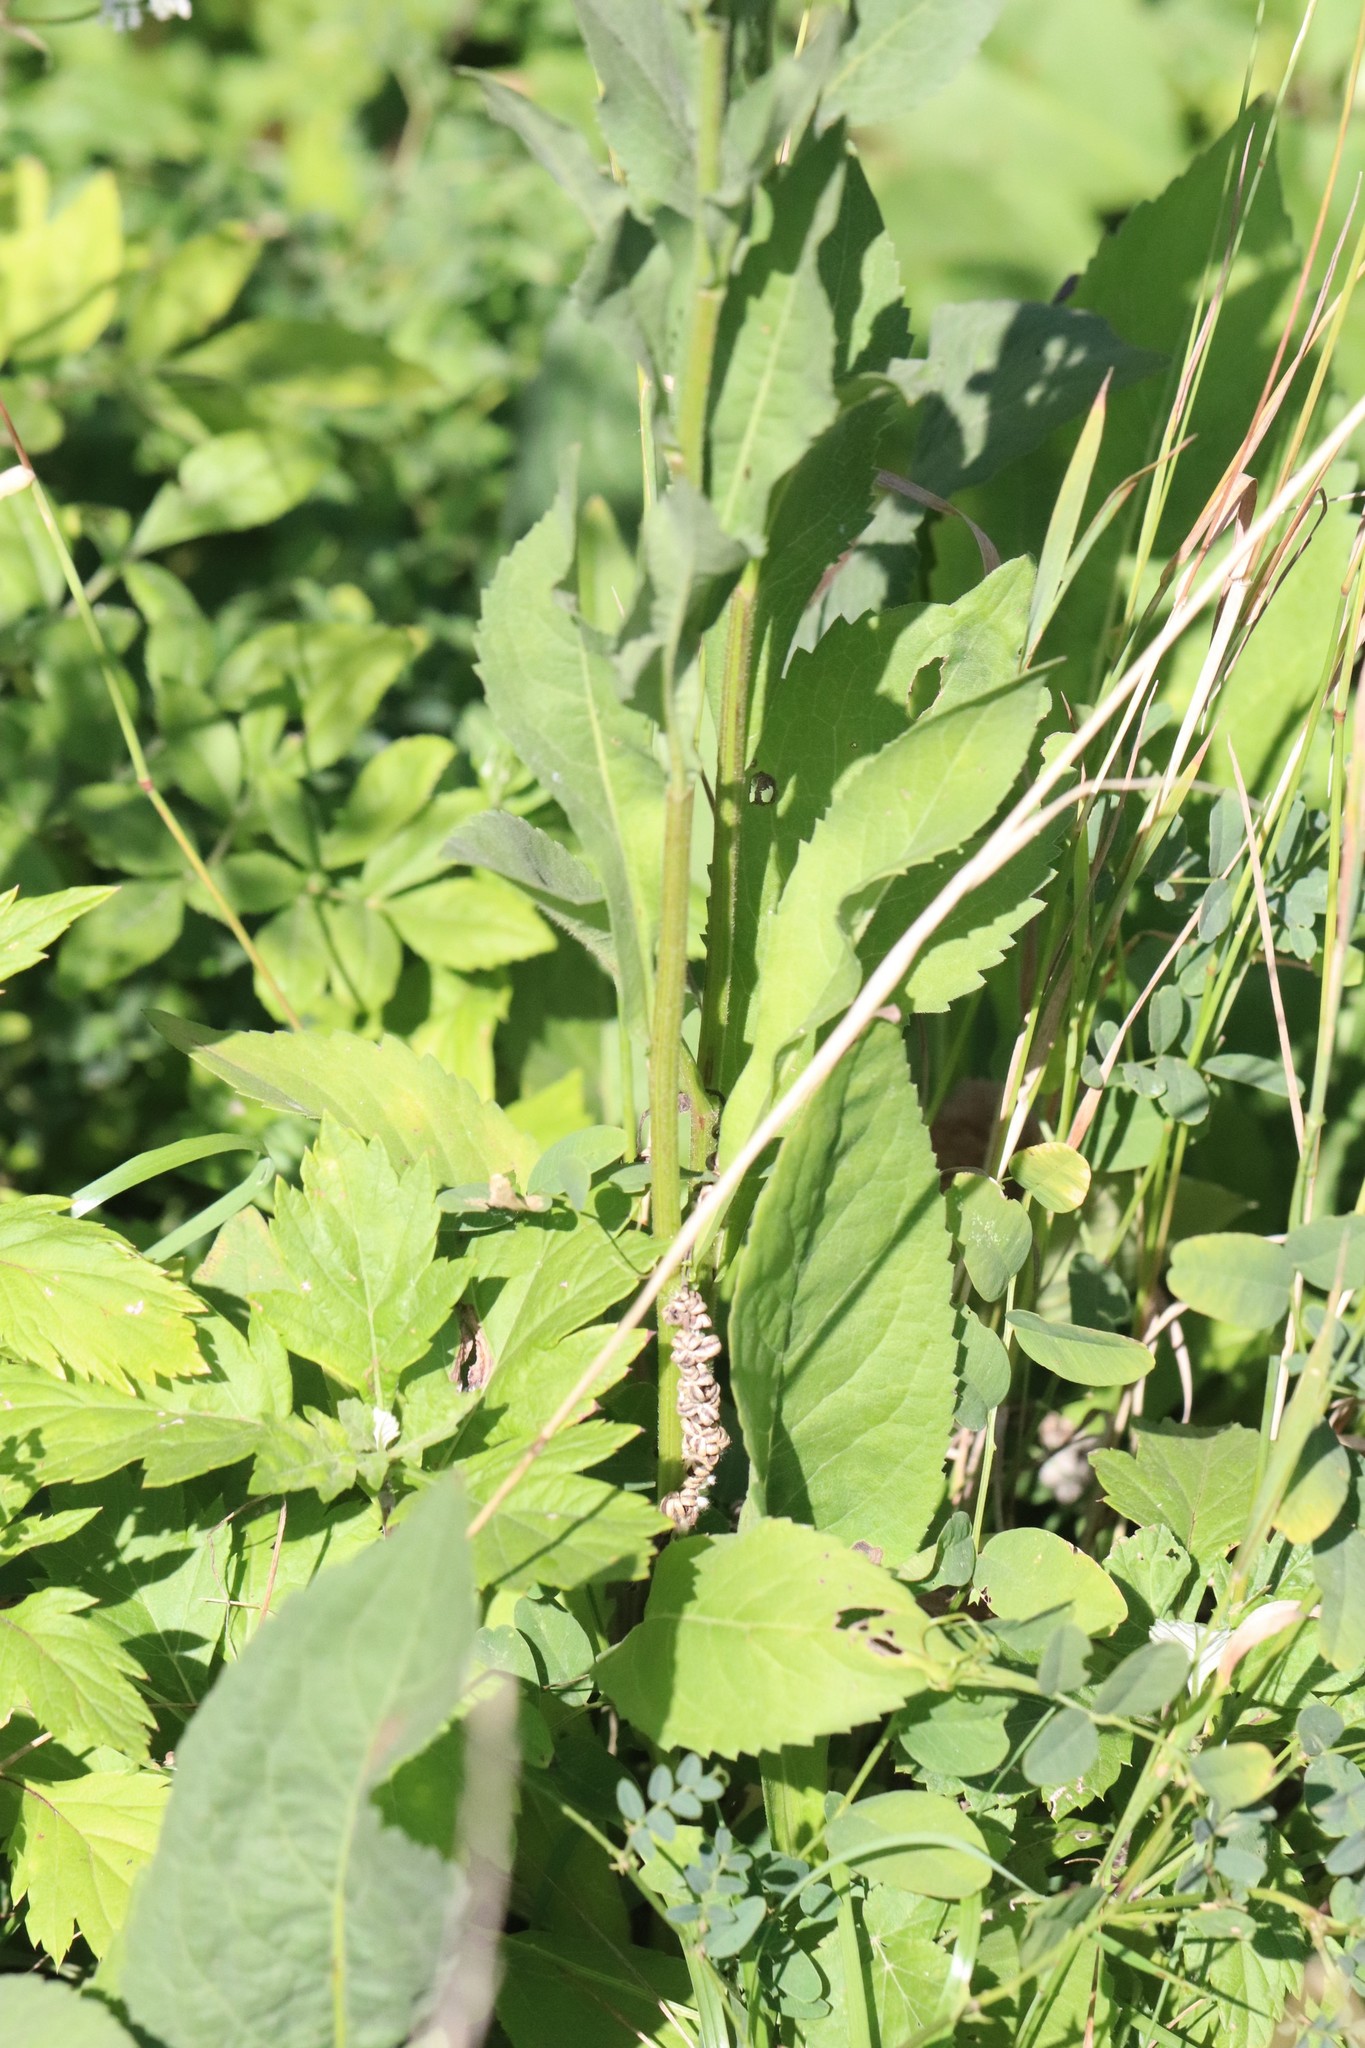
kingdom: Plantae
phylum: Tracheophyta
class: Magnoliopsida
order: Asterales
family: Asteraceae
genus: Aster
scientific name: Aster tataricus
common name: Tatarian aster
